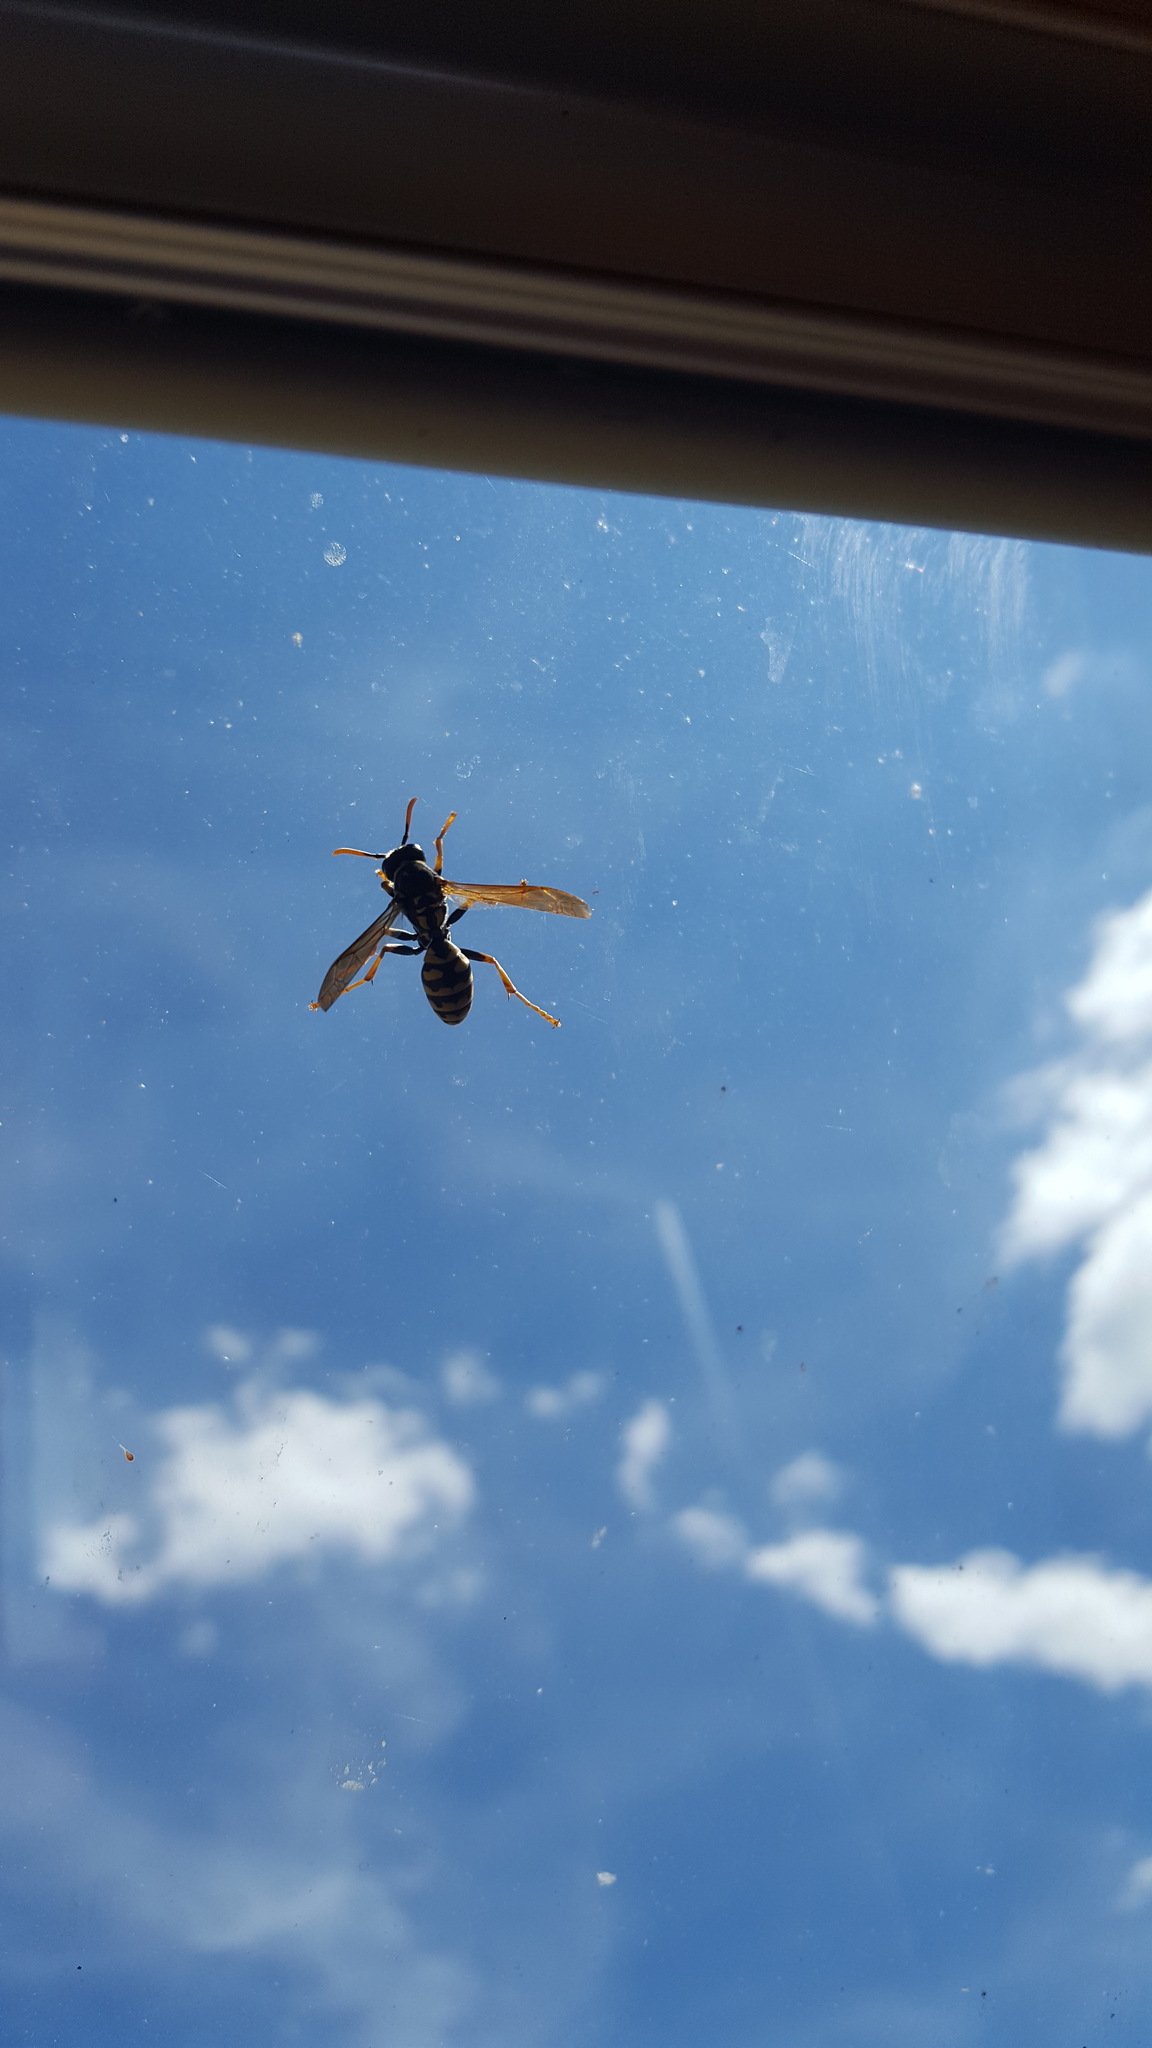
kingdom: Animalia
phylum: Arthropoda
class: Insecta
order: Hymenoptera
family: Eumenidae
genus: Polistes
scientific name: Polistes dominula
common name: Paper wasp
